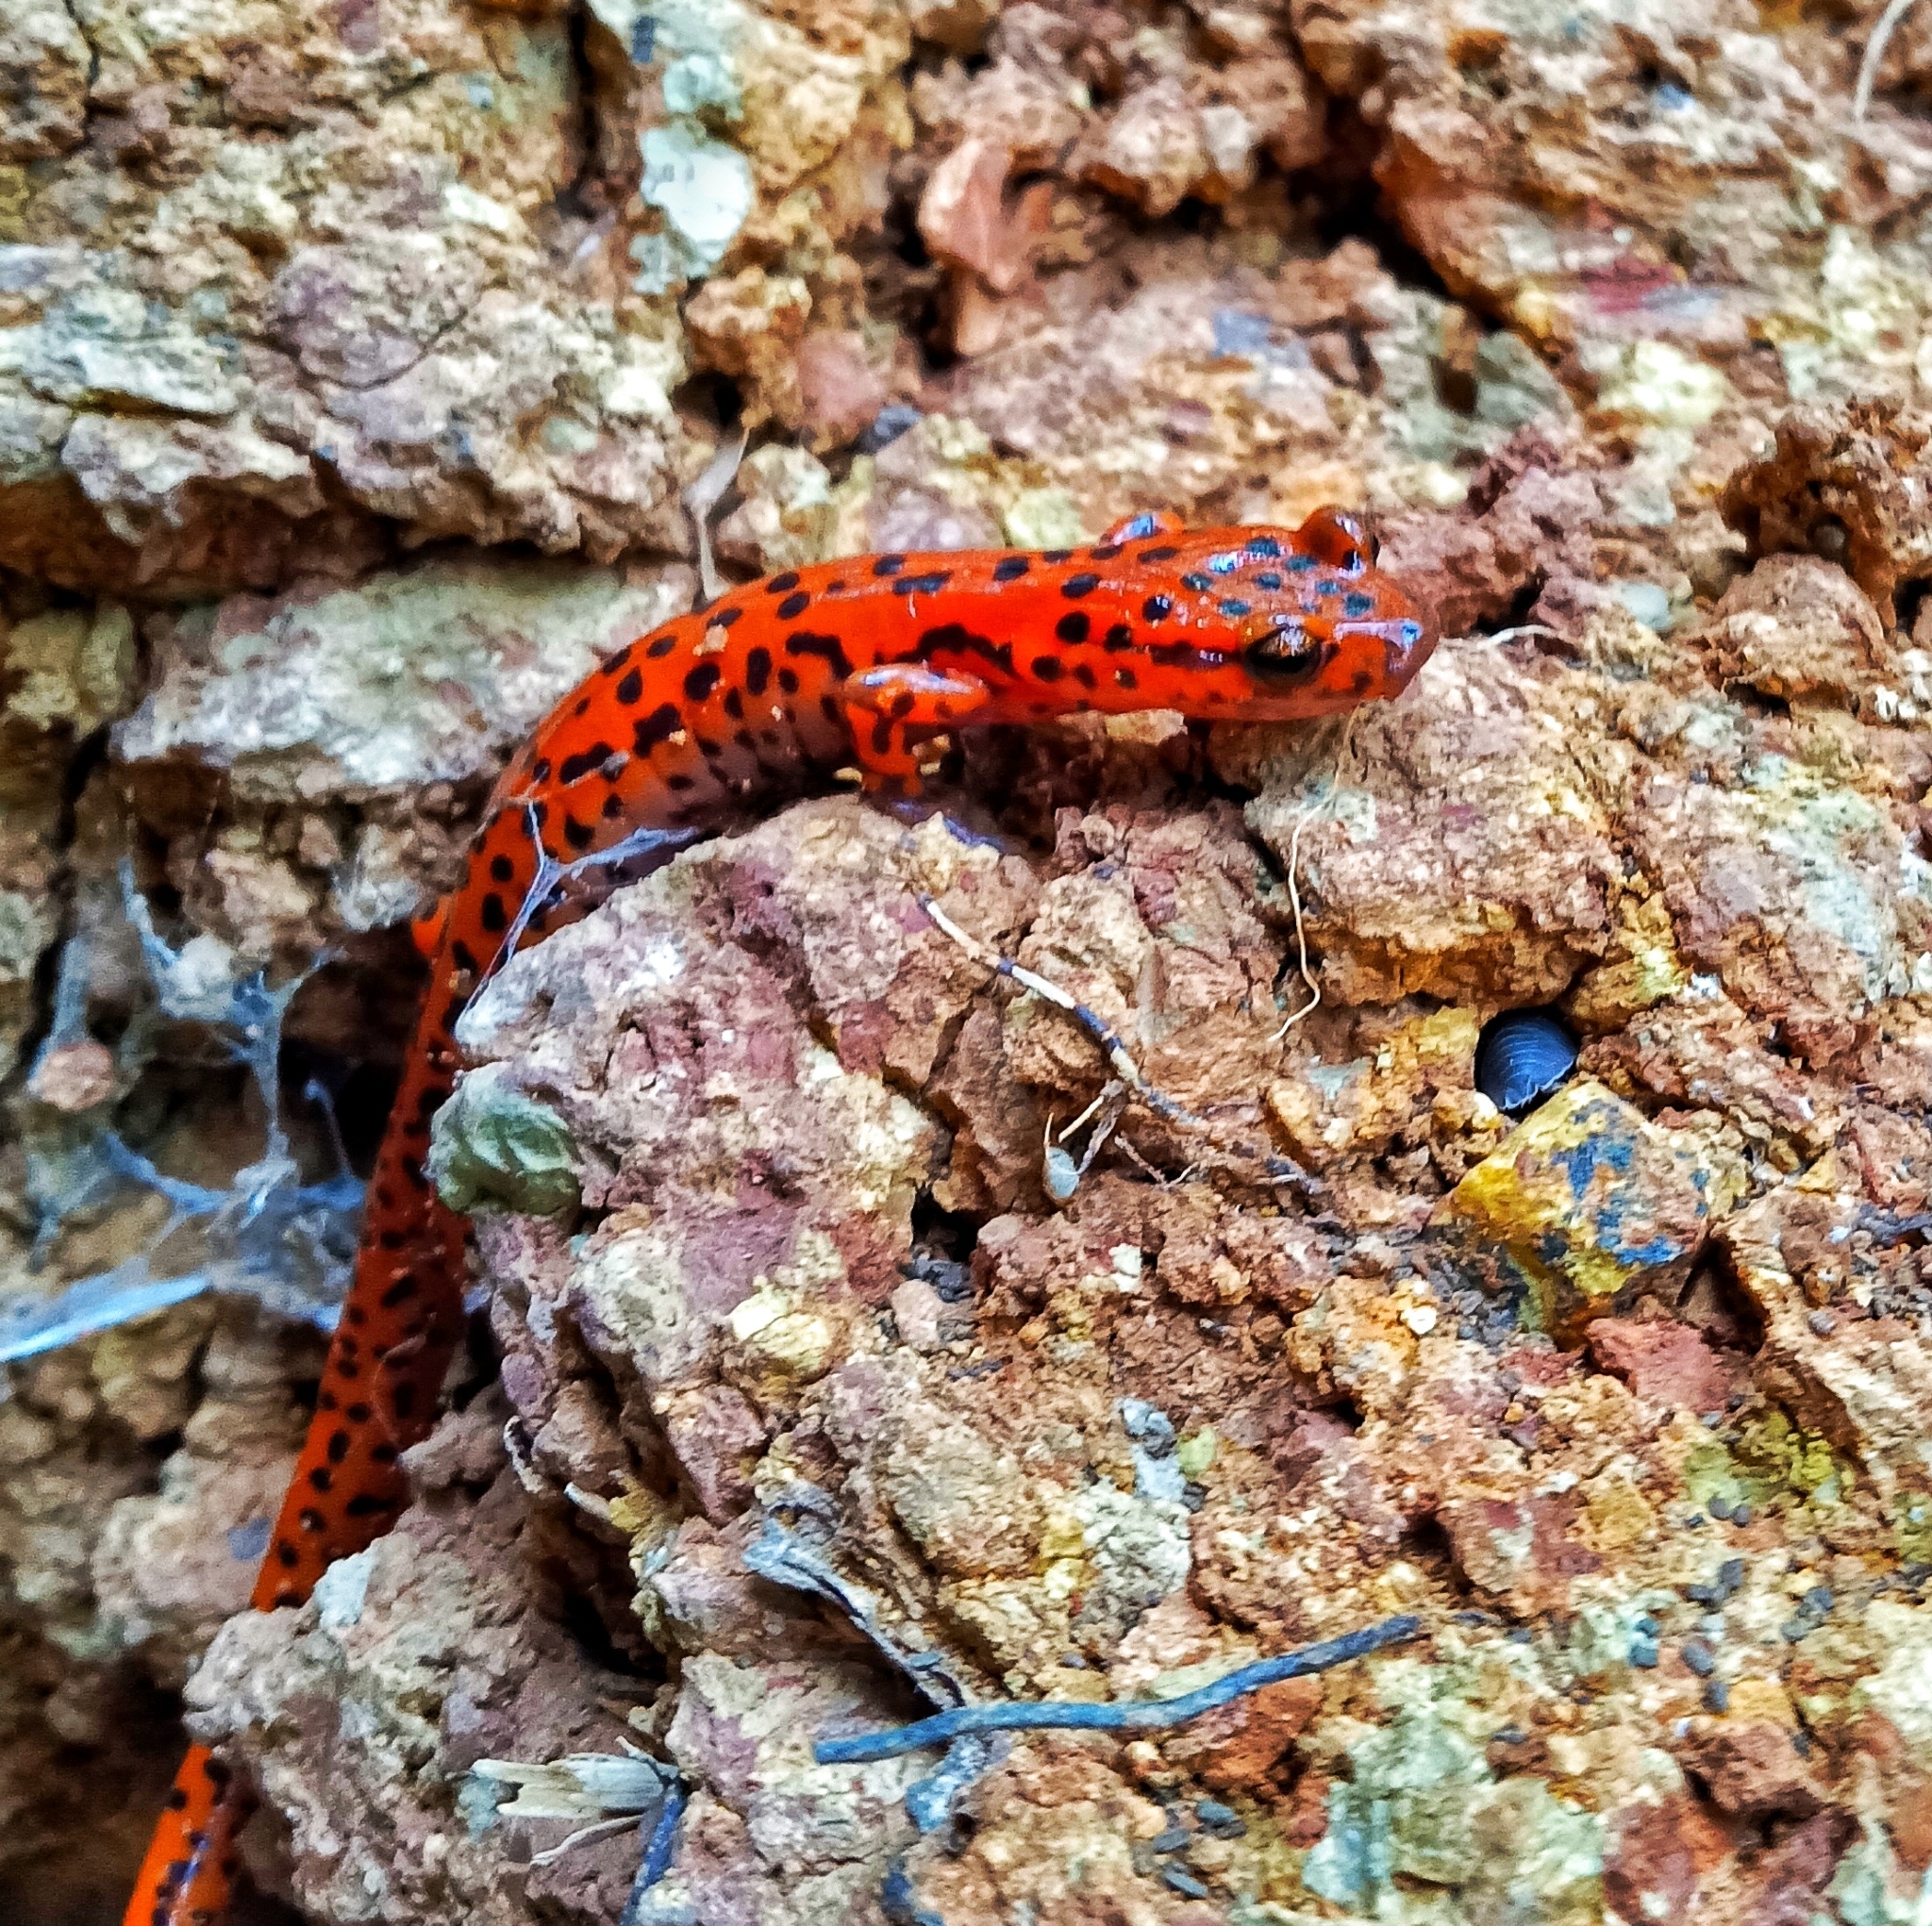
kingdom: Animalia
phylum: Chordata
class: Amphibia
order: Caudata
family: Plethodontidae
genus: Eurycea
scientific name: Eurycea lucifuga
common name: Cave salamander
